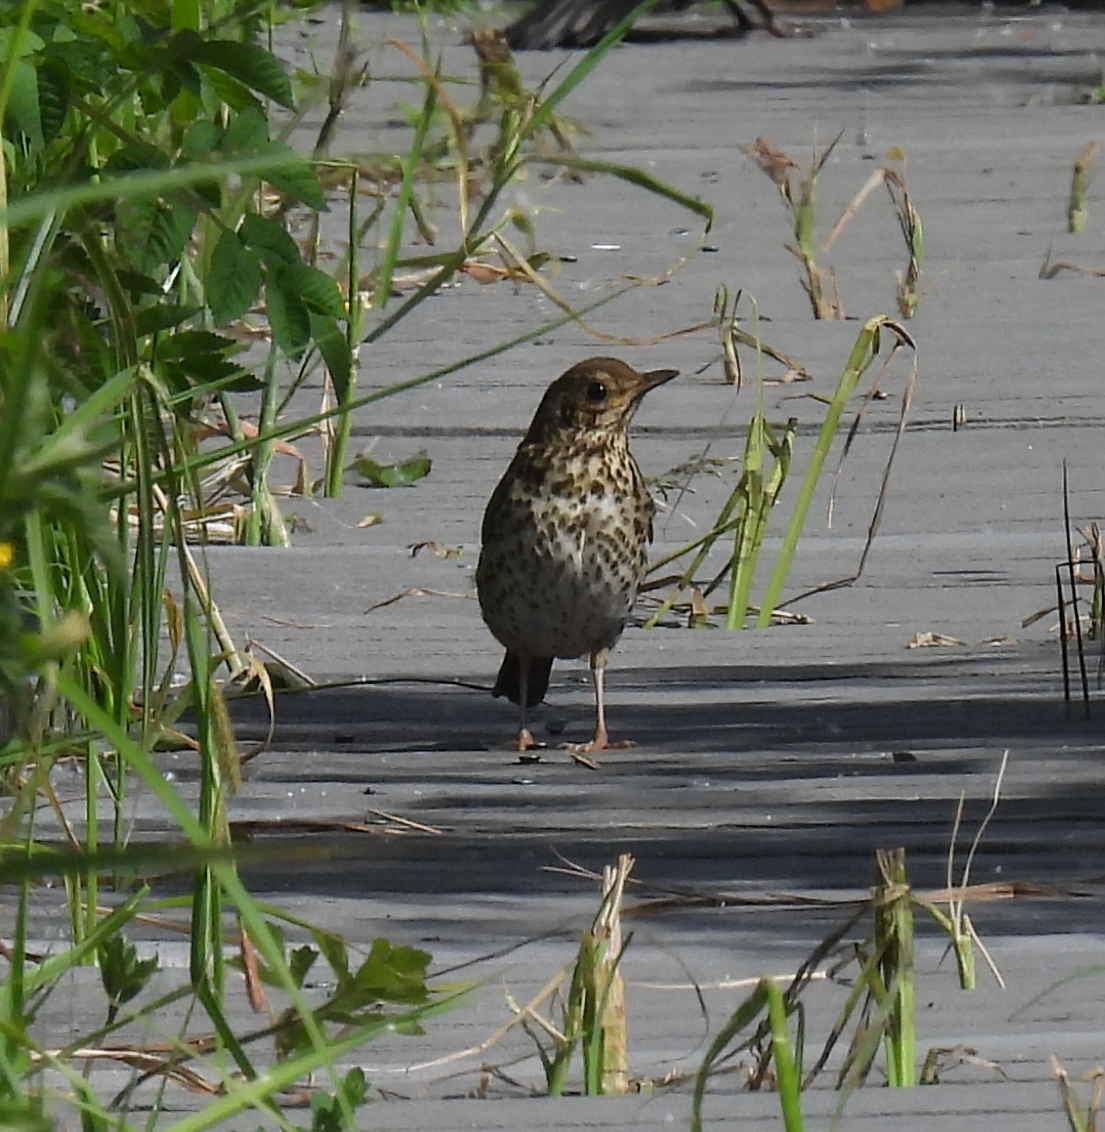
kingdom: Animalia
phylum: Chordata
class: Aves
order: Passeriformes
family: Turdidae
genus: Turdus
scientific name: Turdus philomelos
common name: Song thrush
